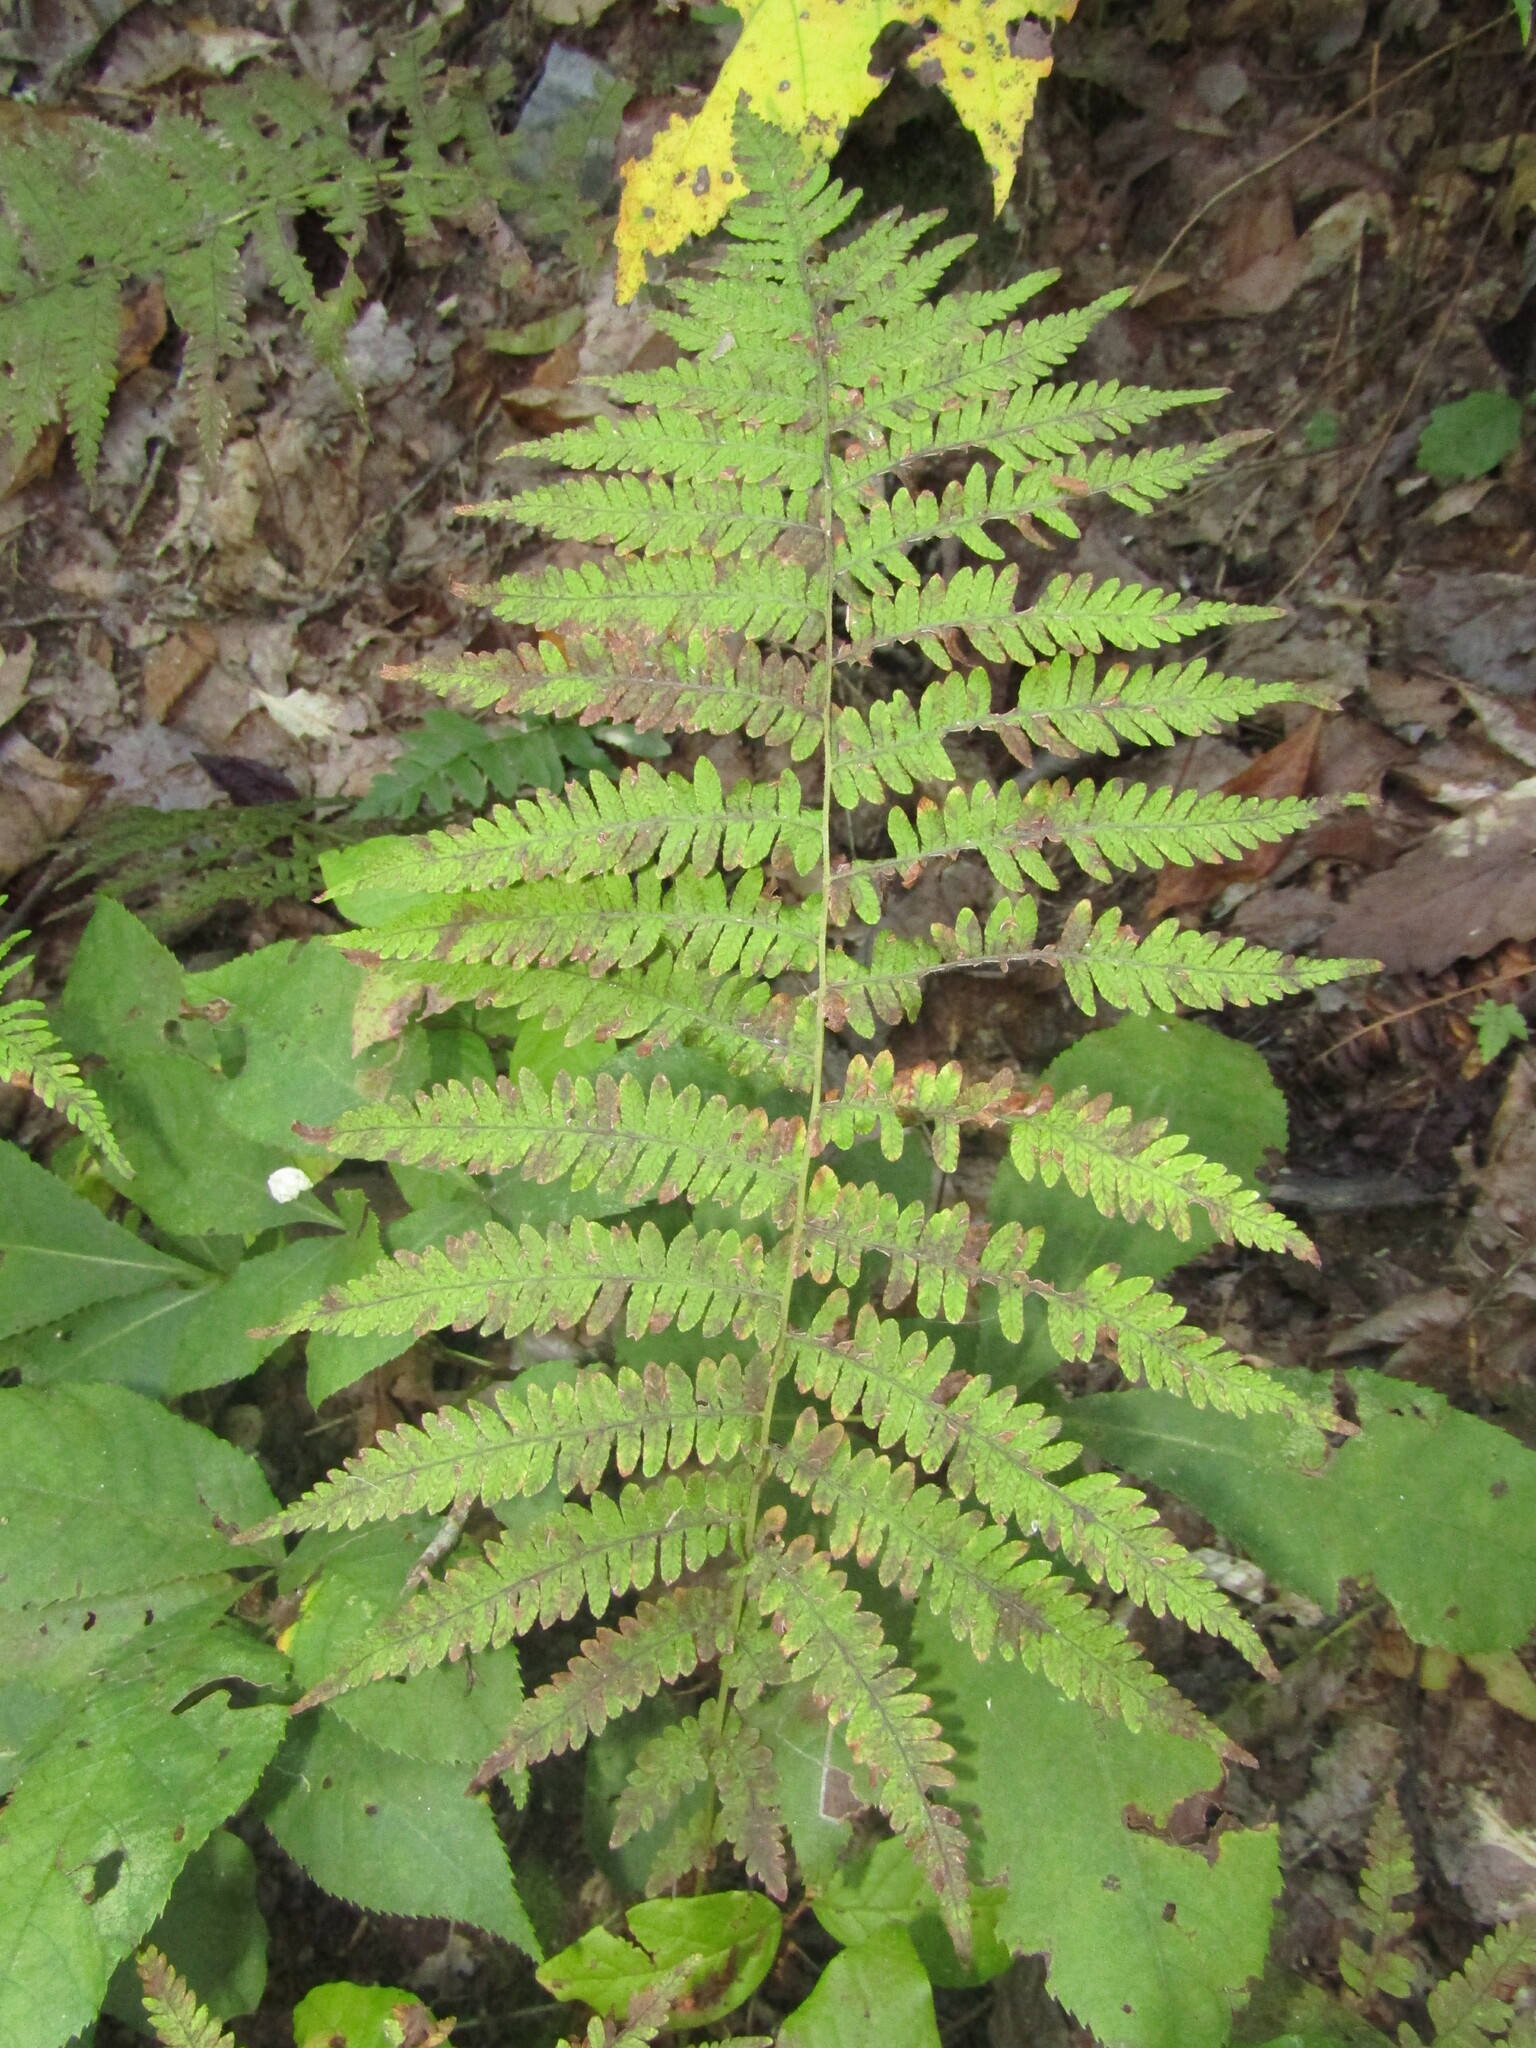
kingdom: Plantae
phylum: Tracheophyta
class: Polypodiopsida
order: Polypodiales
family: Thelypteridaceae
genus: Amauropelta
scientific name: Amauropelta noveboracensis
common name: New york fern
